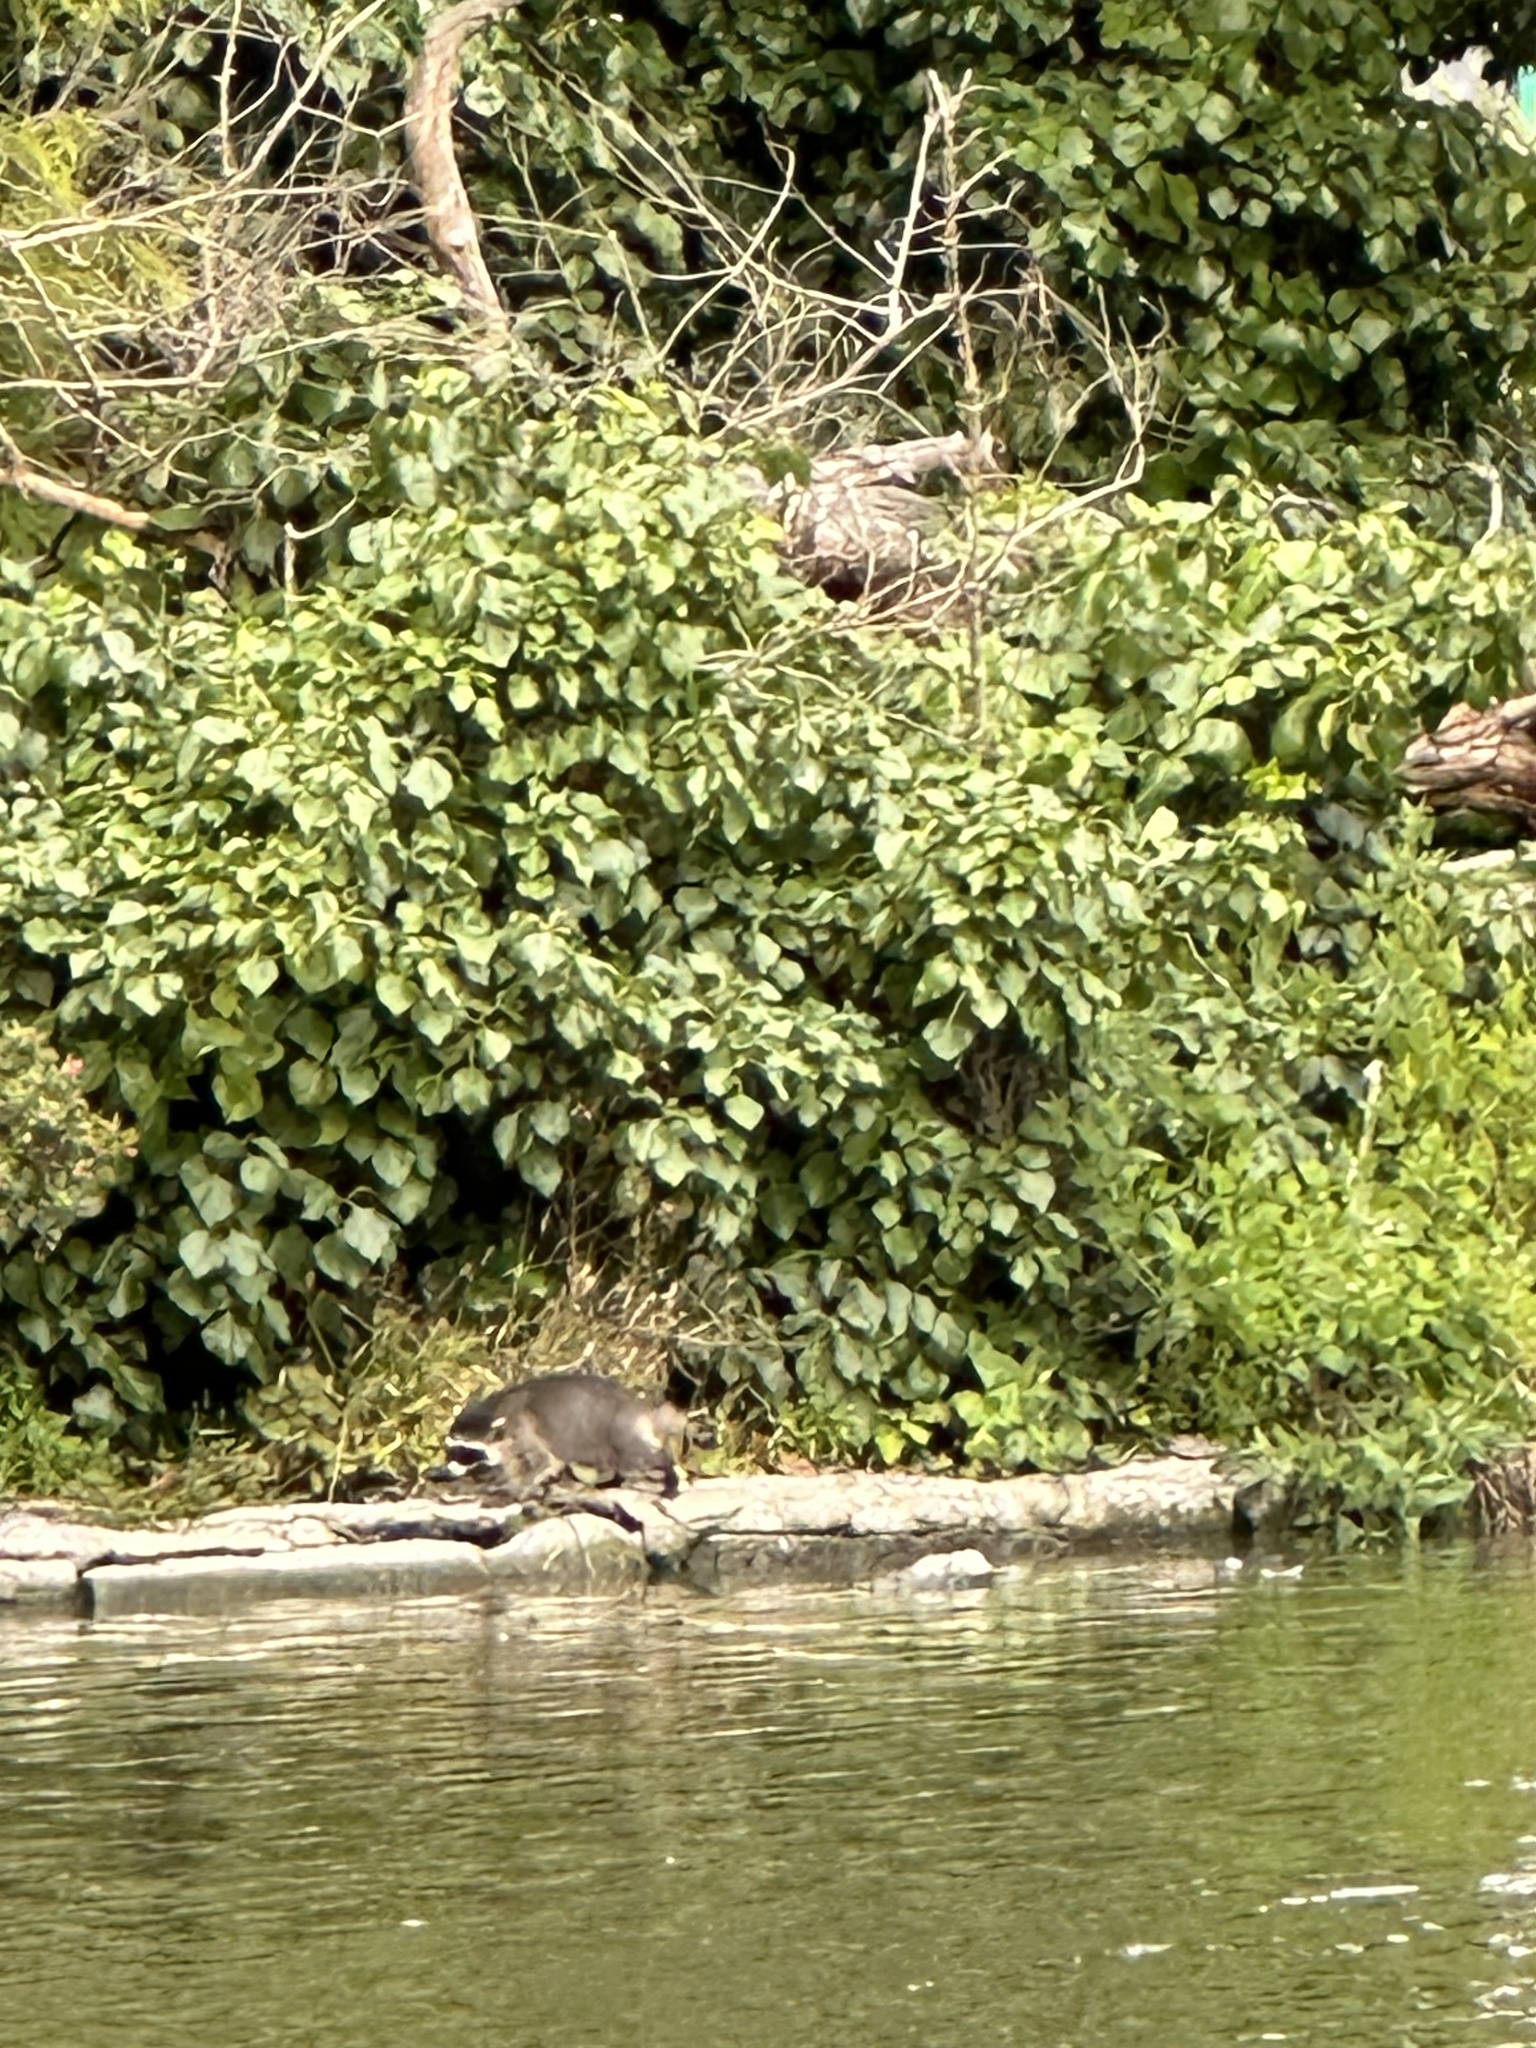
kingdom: Animalia
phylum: Chordata
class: Mammalia
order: Carnivora
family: Procyonidae
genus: Procyon
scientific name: Procyon lotor
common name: Raccoon
